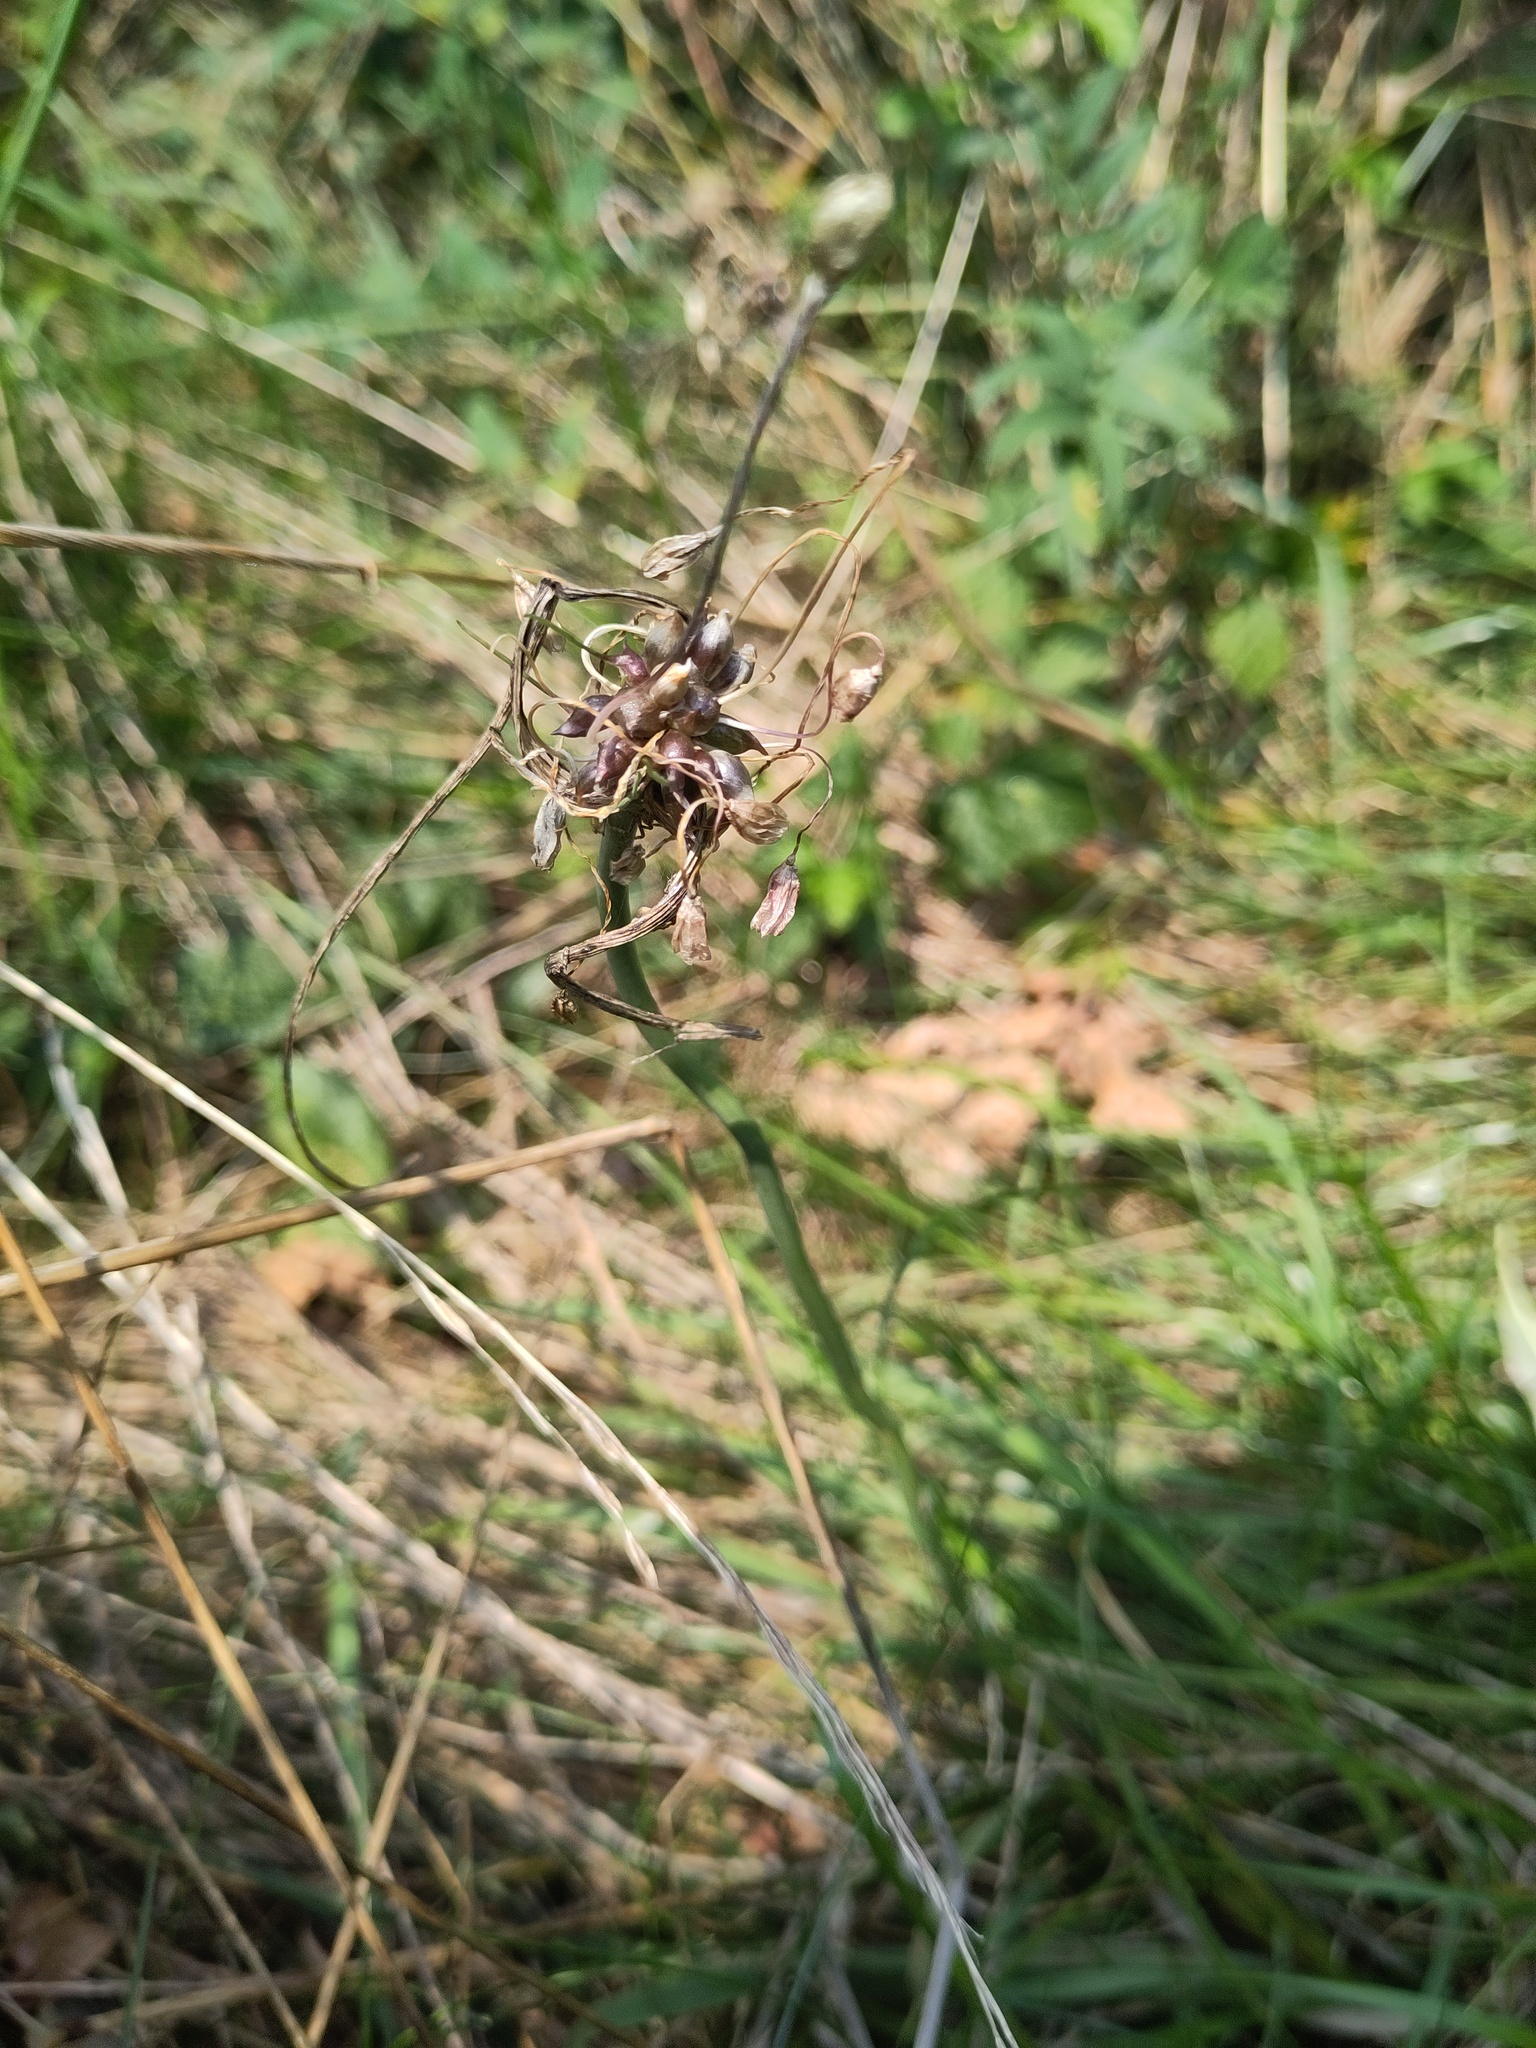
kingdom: Plantae
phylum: Tracheophyta
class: Liliopsida
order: Asparagales
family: Amaryllidaceae
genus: Allium
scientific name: Allium oleraceum
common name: Field garlic
